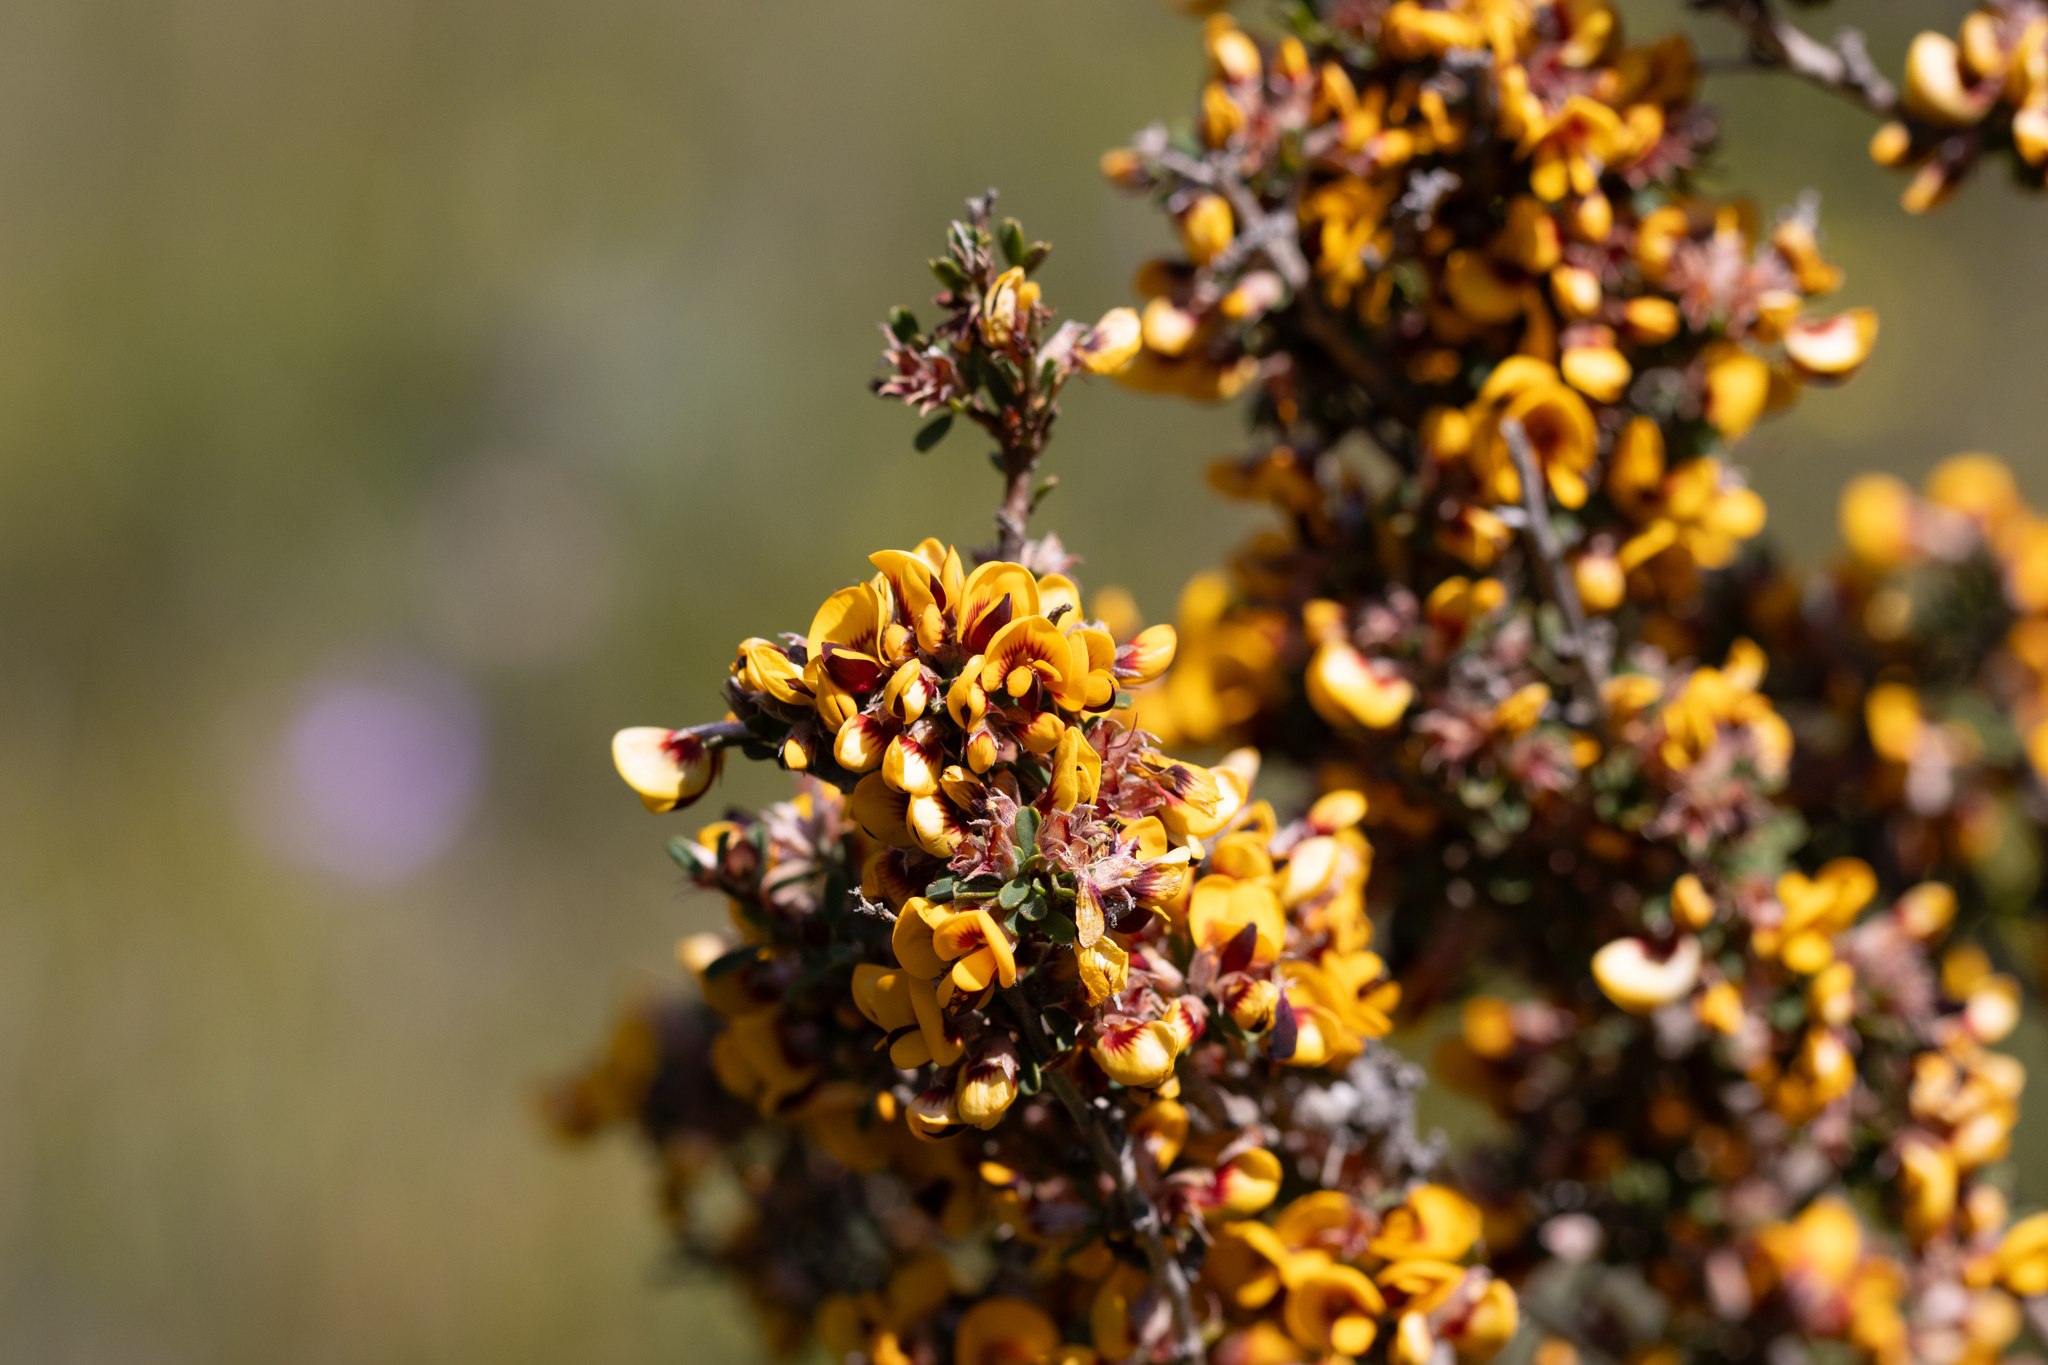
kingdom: Plantae
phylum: Tracheophyta
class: Magnoliopsida
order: Fabales
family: Fabaceae
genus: Pultenaea
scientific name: Pultenaea largiflorens
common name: Twiggy bush-pea
